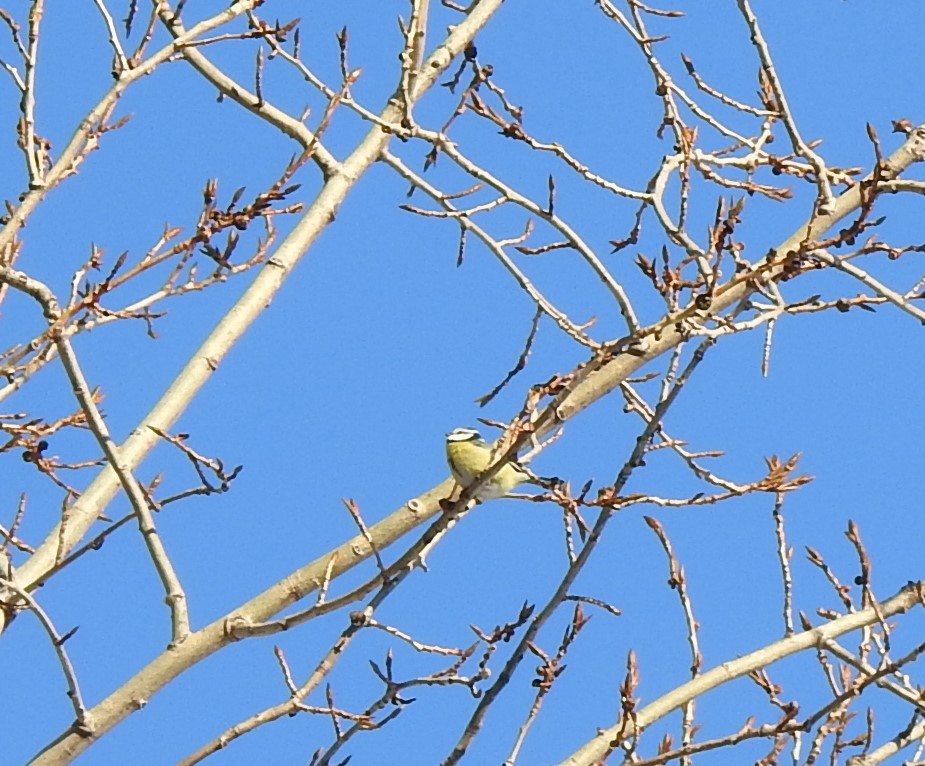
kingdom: Animalia
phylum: Chordata
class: Aves
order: Passeriformes
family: Paridae
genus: Cyanistes
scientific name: Cyanistes caeruleus
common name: Eurasian blue tit
